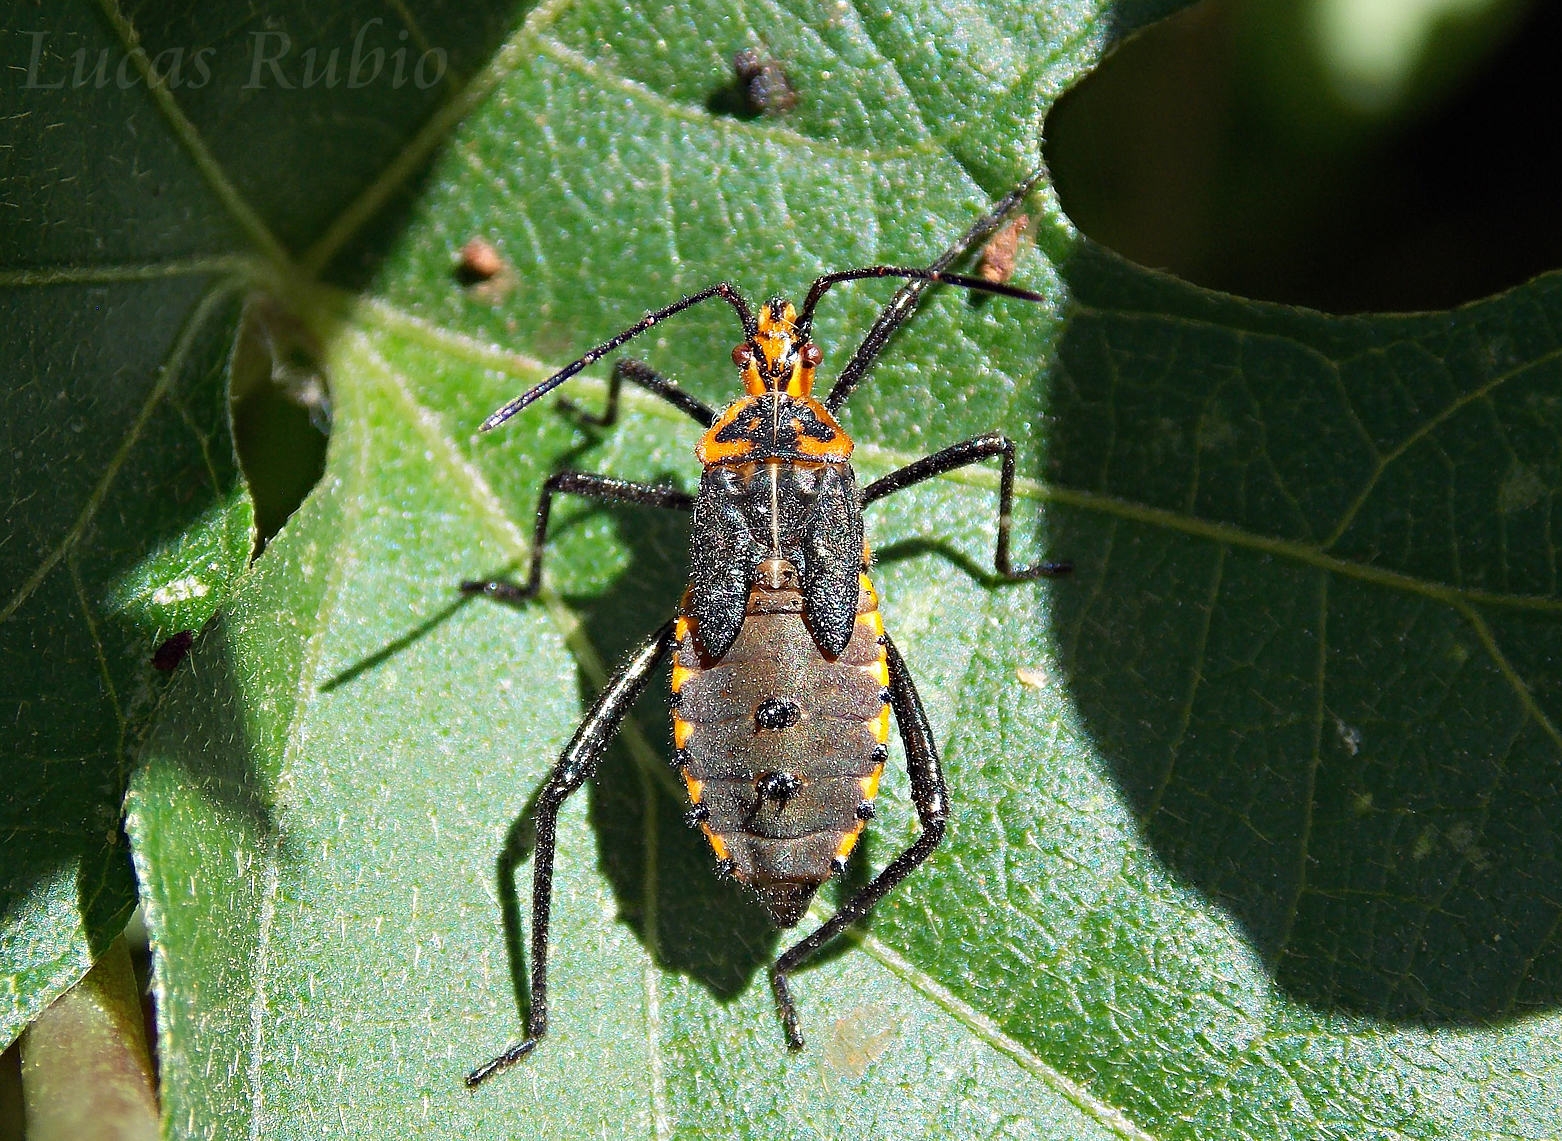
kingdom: Animalia
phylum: Arthropoda
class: Insecta
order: Hemiptera
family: Coreidae
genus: Phthiacnemia
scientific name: Phthiacnemia picta
